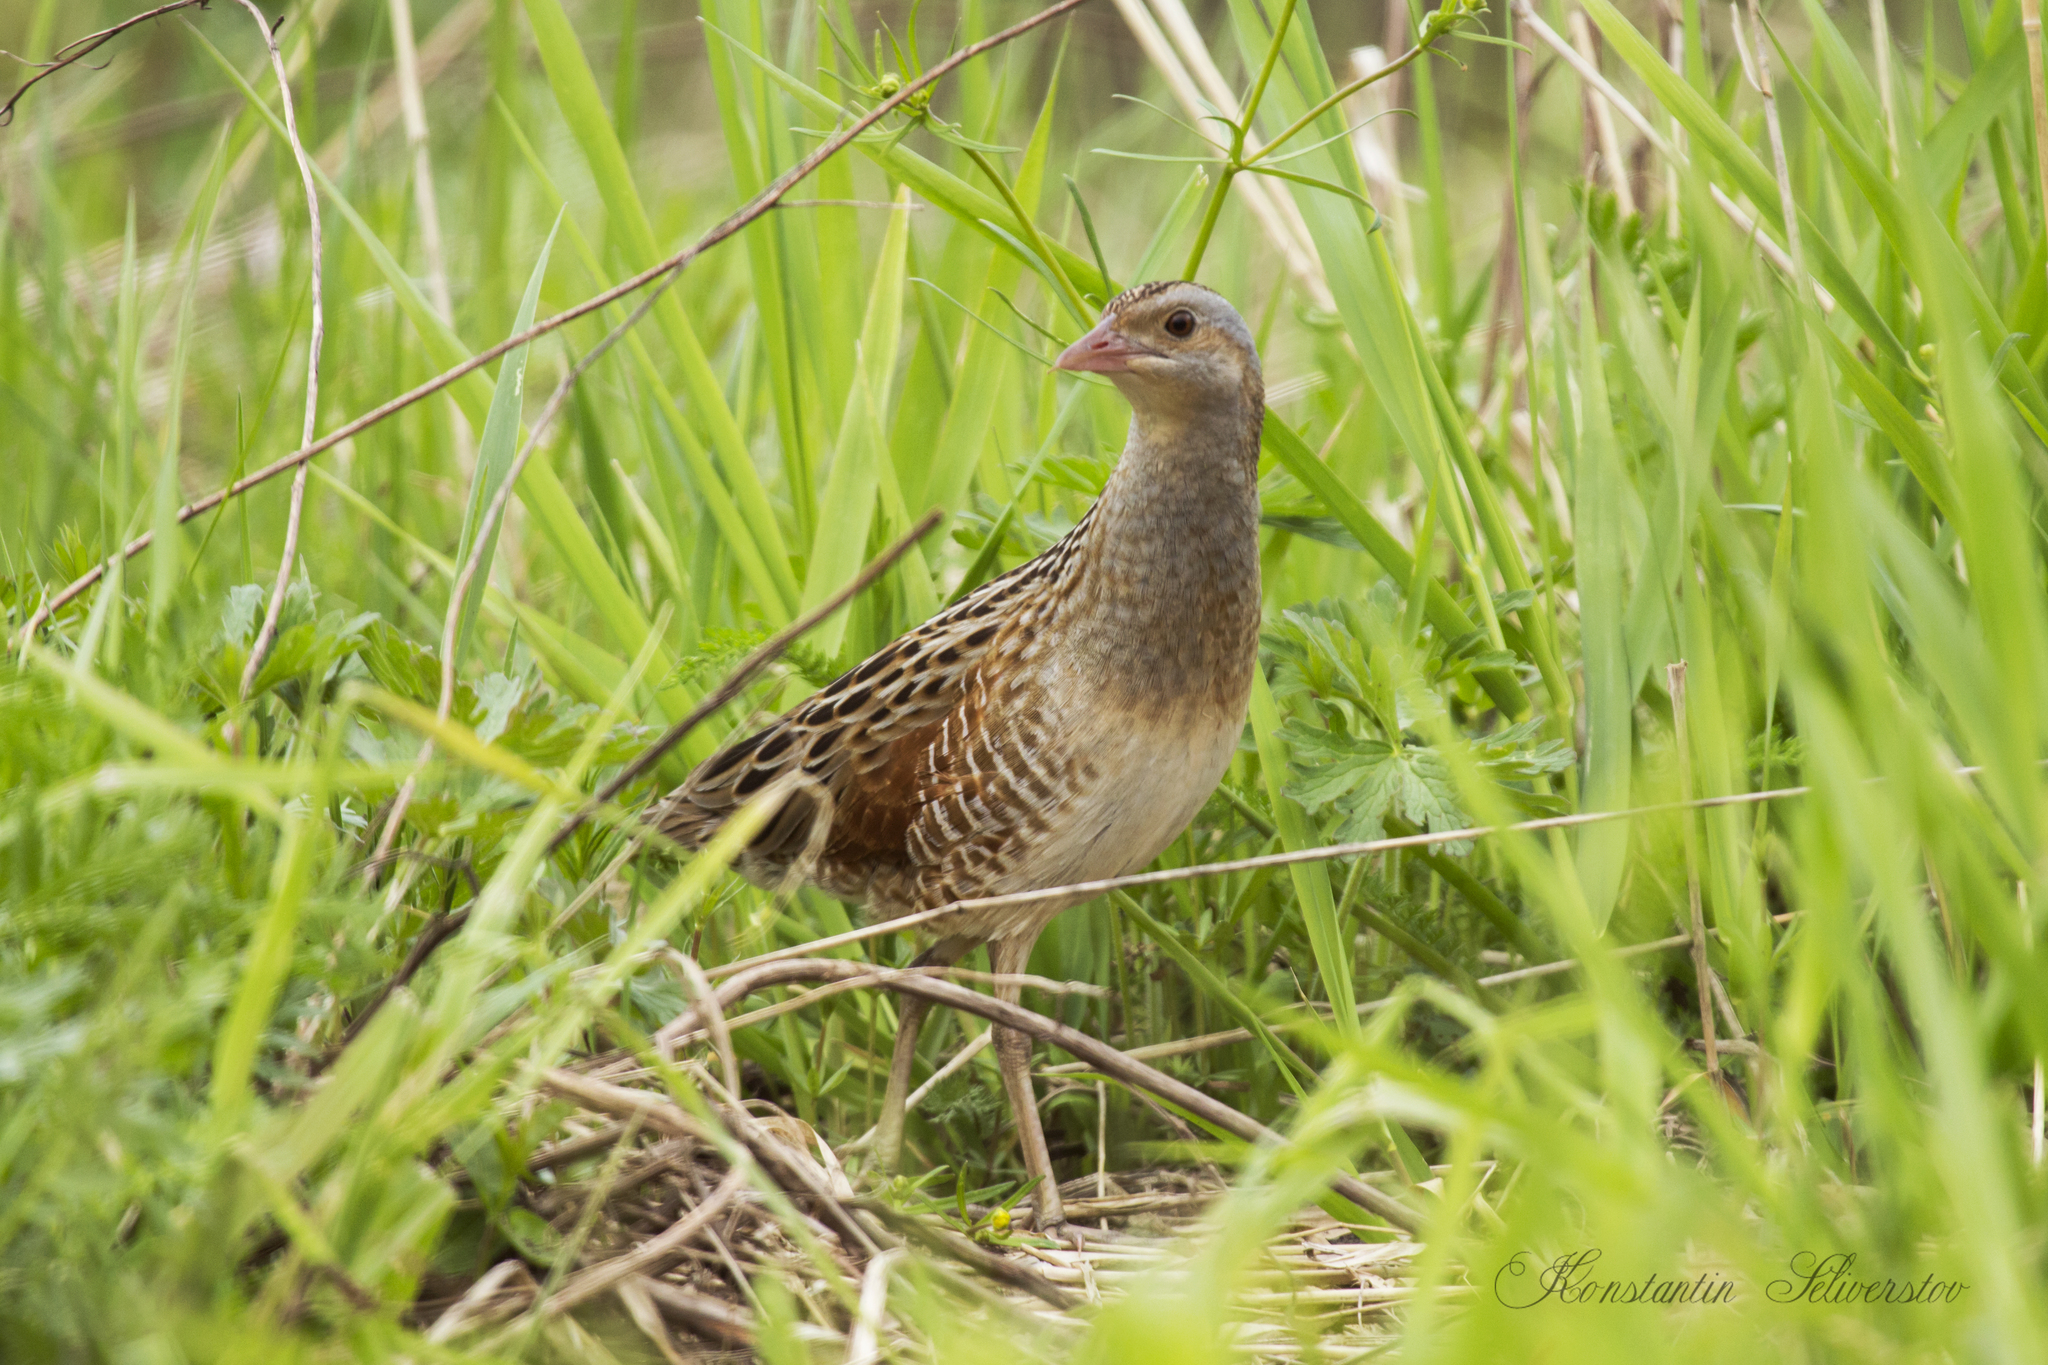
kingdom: Animalia
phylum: Chordata
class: Aves
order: Gruiformes
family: Rallidae
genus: Crex
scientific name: Crex crex
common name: Corn crake
